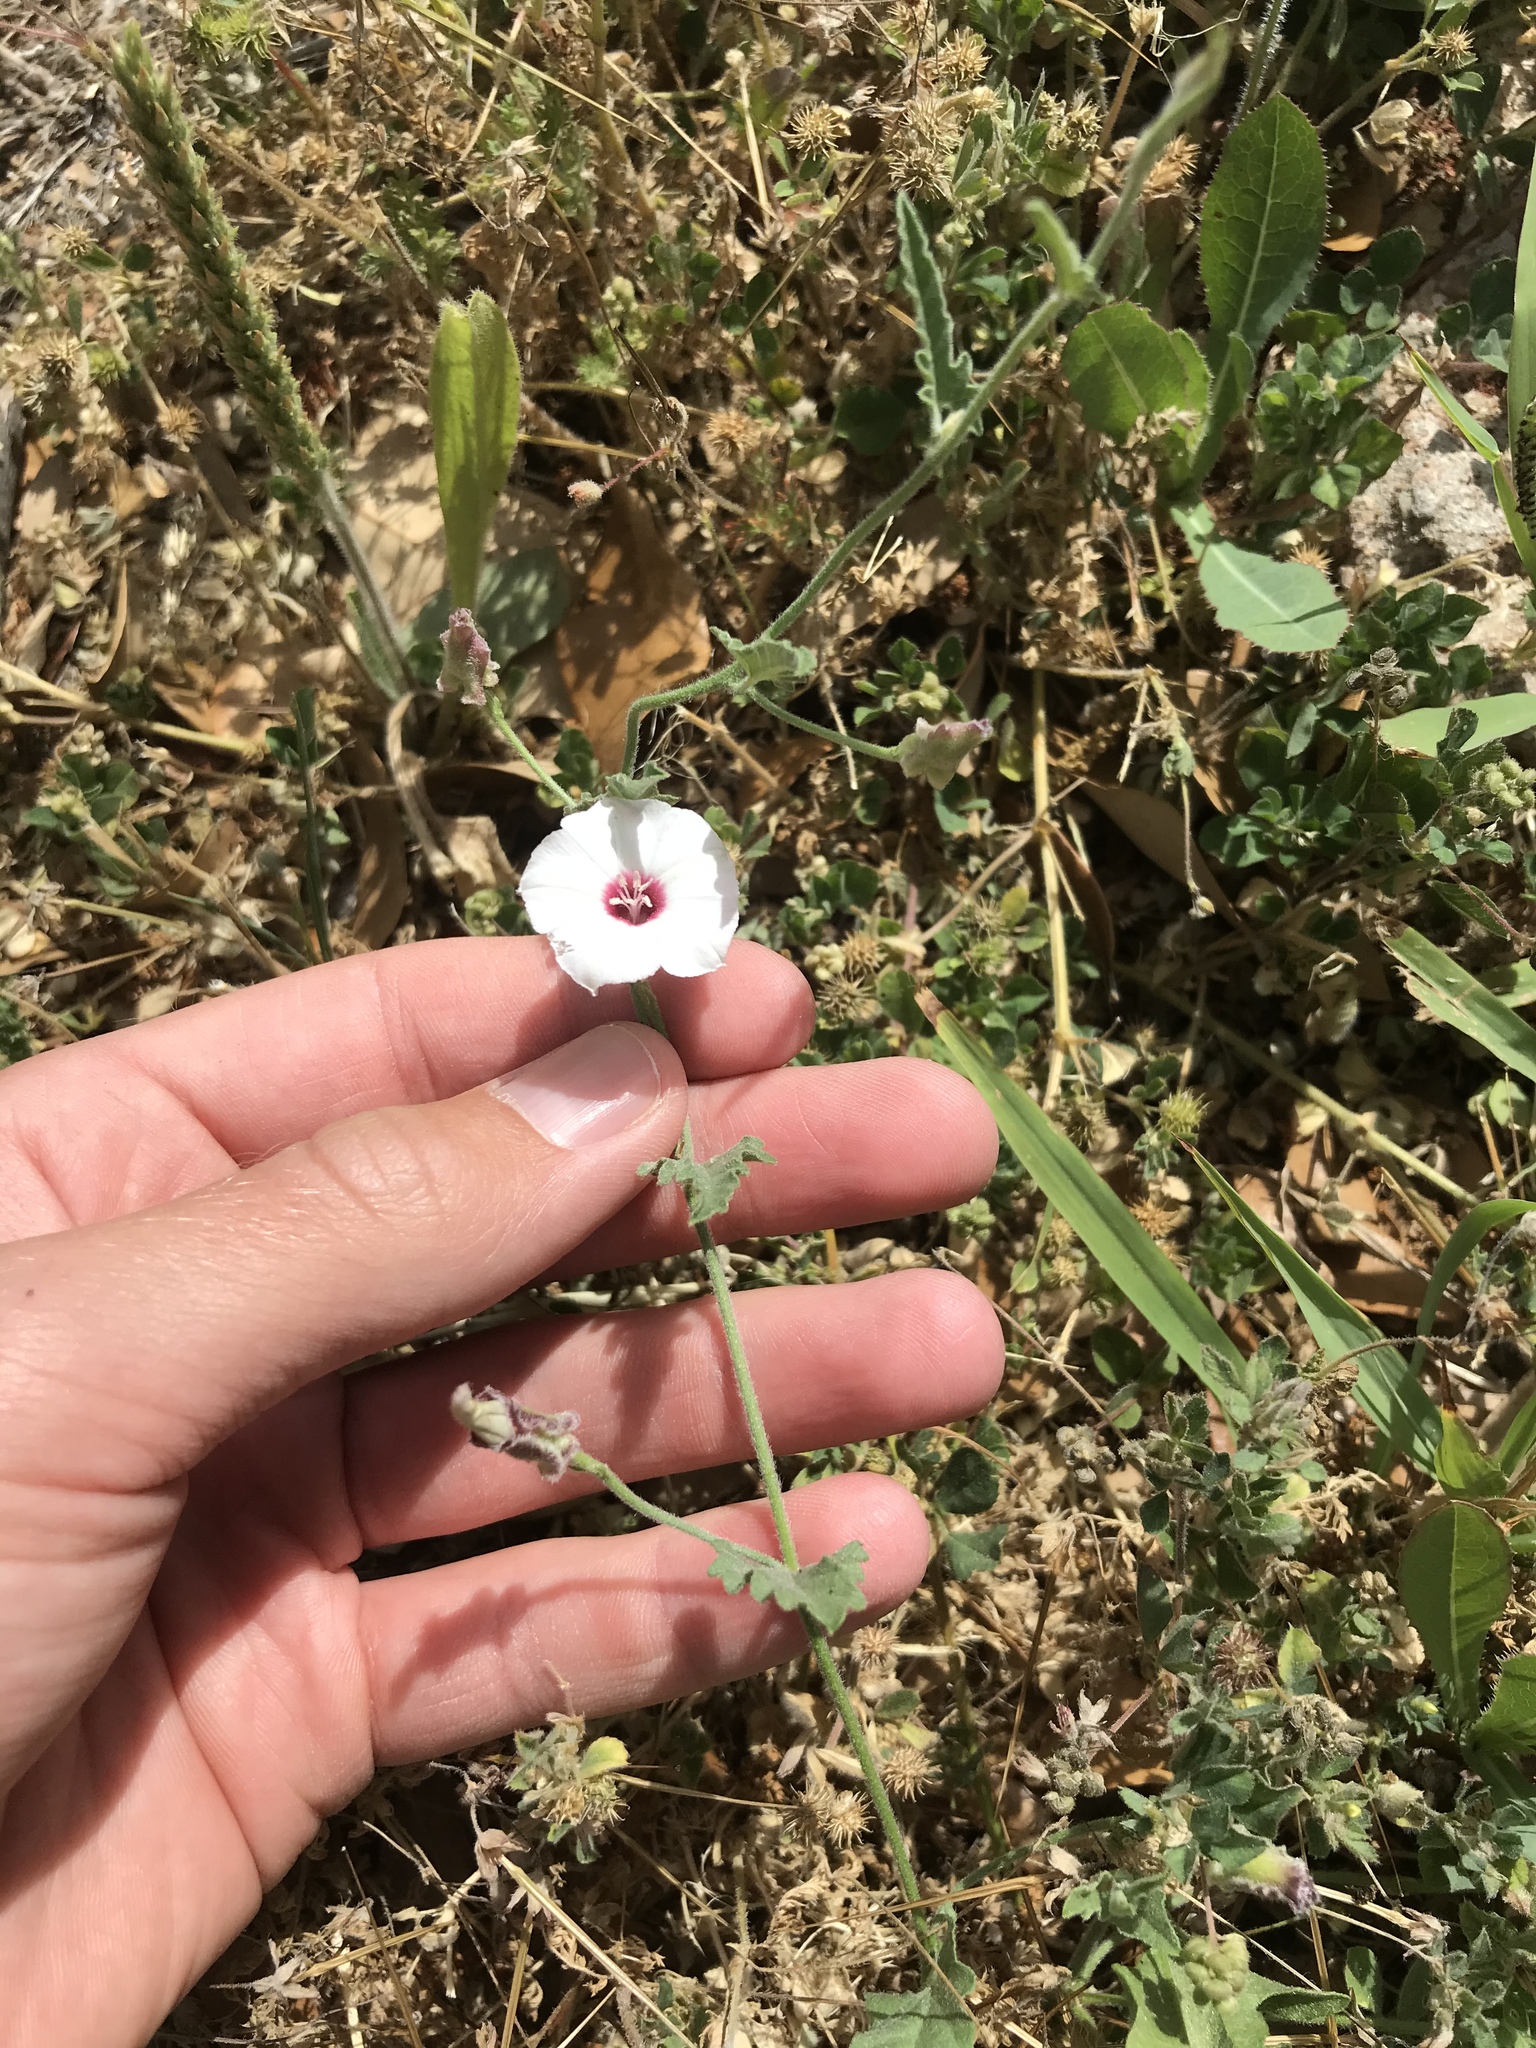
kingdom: Plantae
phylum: Tracheophyta
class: Magnoliopsida
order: Solanales
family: Convolvulaceae
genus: Convolvulus
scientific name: Convolvulus equitans
